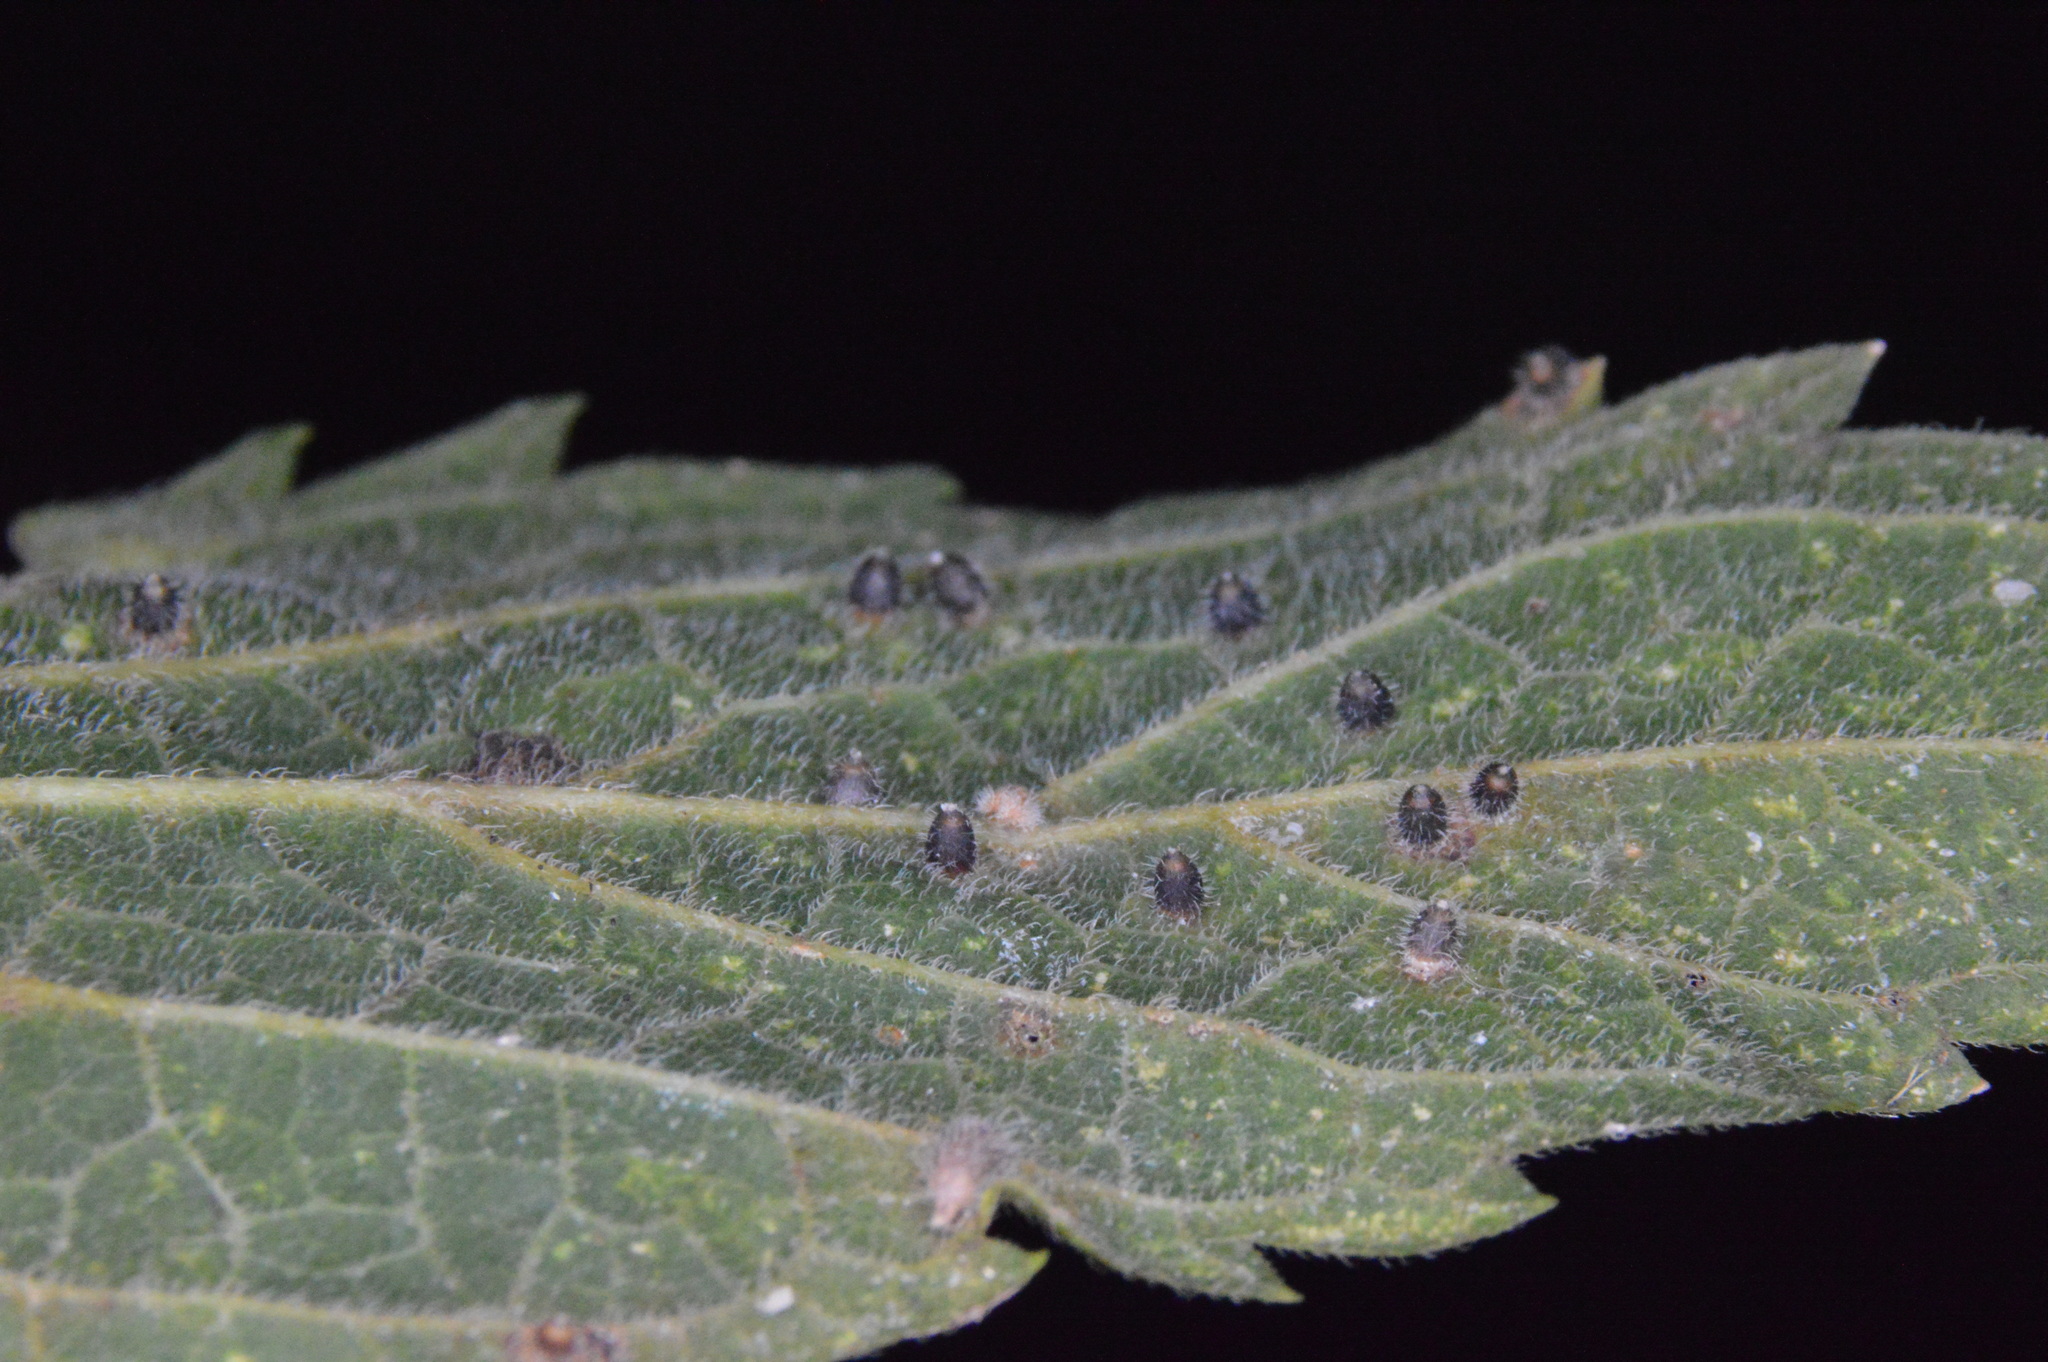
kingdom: Animalia
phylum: Arthropoda
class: Insecta
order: Diptera
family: Cecidomyiidae
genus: Celticecis
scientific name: Celticecis cupiformis
